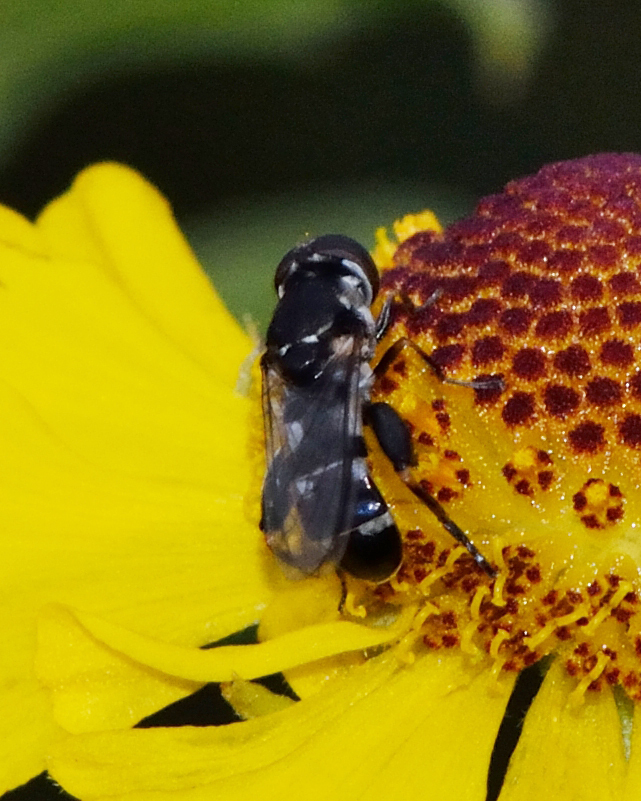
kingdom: Animalia
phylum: Arthropoda
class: Insecta
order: Diptera
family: Syrphidae
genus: Syritta
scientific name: Syritta pipiens
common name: Hover fly
